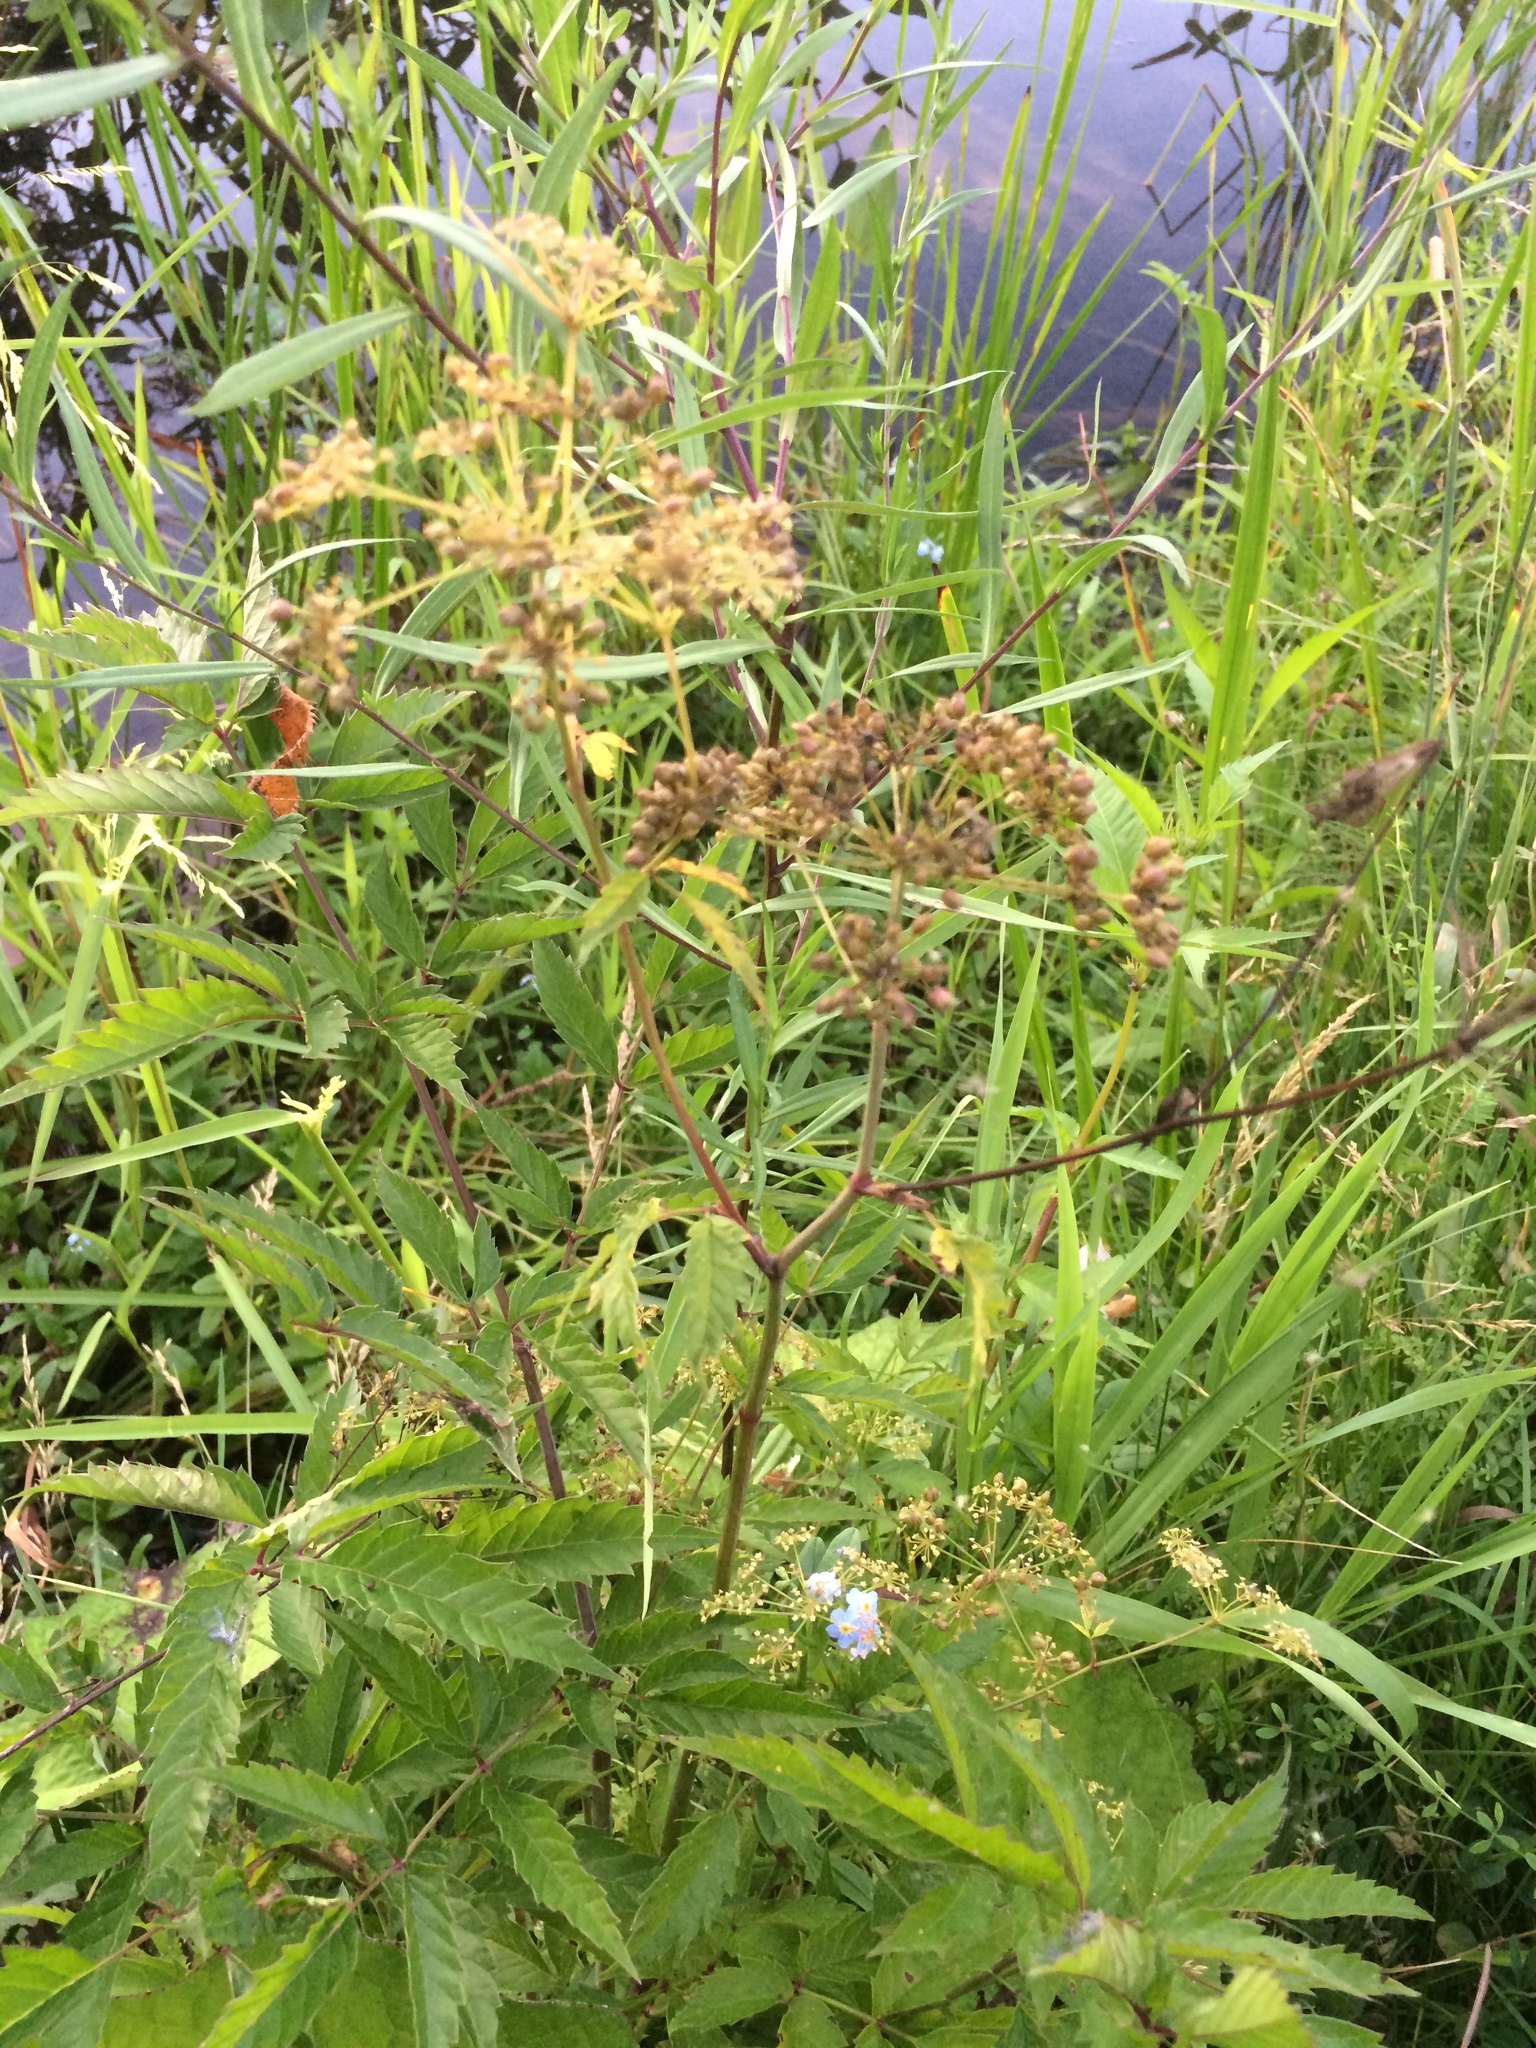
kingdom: Plantae
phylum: Tracheophyta
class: Magnoliopsida
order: Apiales
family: Apiaceae
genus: Cicuta
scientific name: Cicuta maculata
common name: Spotted cowbane
